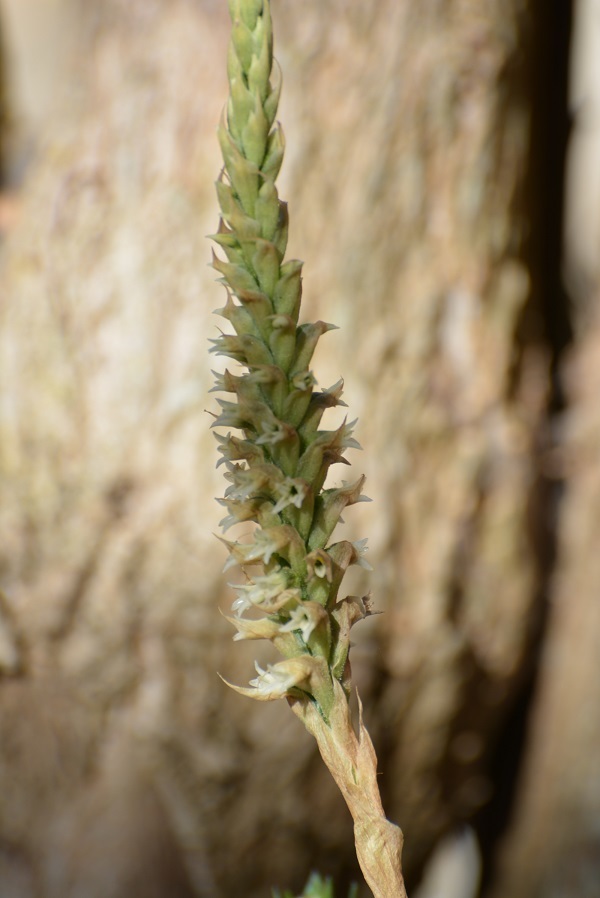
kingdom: Plantae
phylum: Tracheophyta
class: Liliopsida
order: Asparagales
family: Orchidaceae
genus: Aulosepalum
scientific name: Aulosepalum pyramidale
